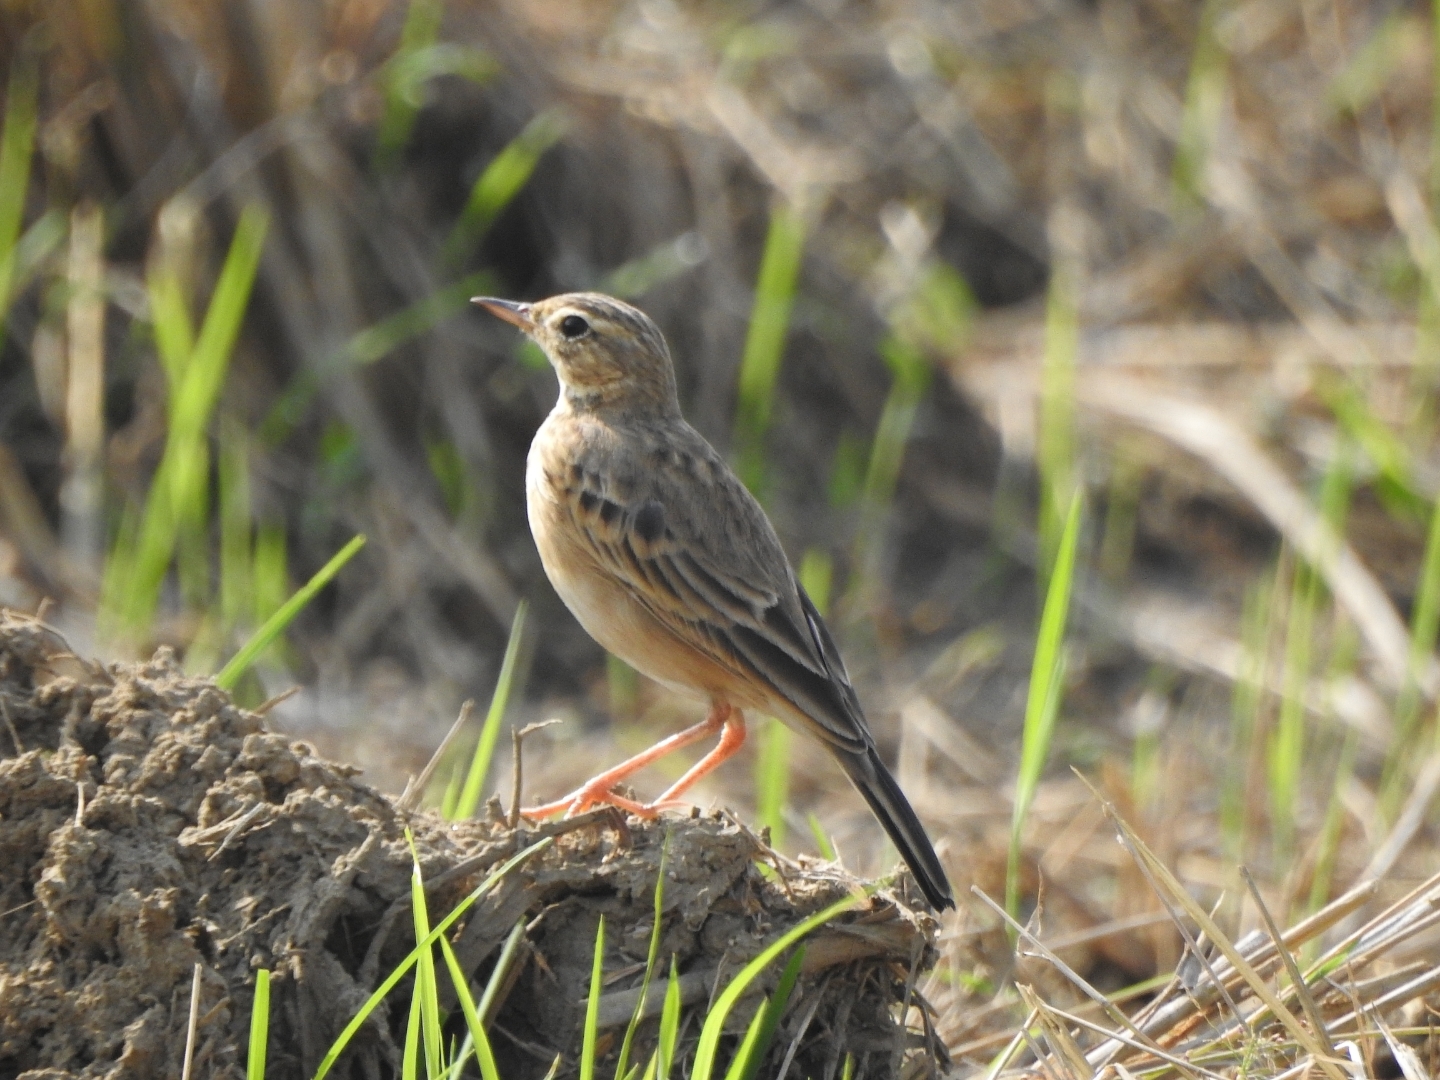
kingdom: Animalia
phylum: Chordata
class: Aves
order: Passeriformes
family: Motacillidae
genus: Anthus
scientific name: Anthus rufulus
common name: Paddyfield pipit
